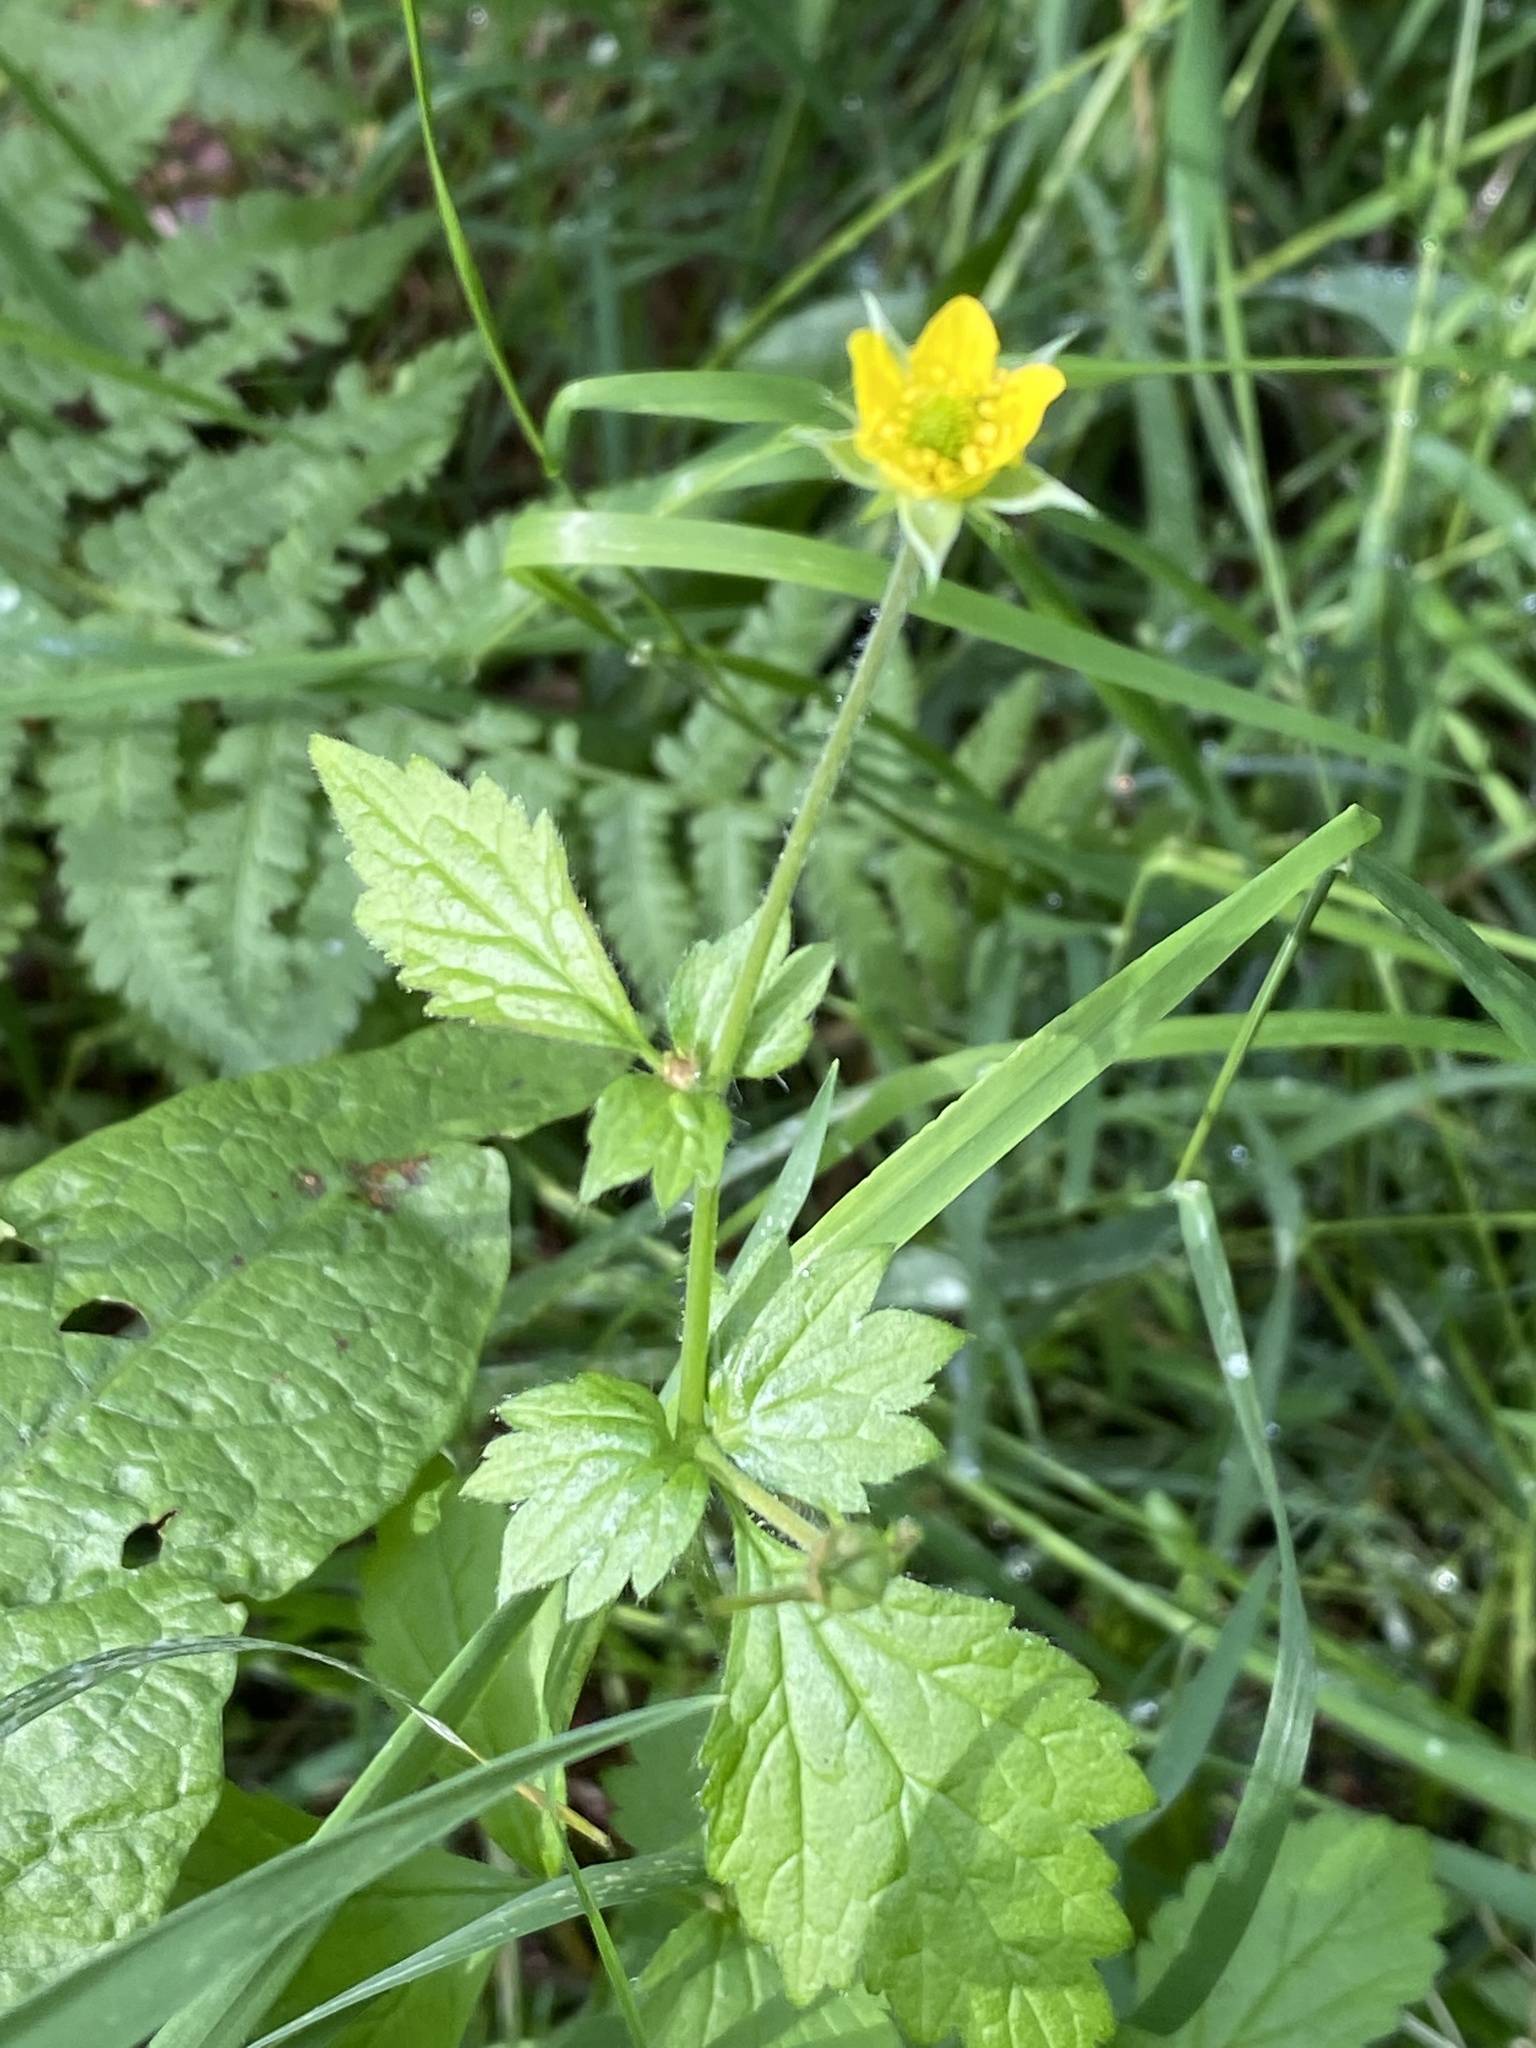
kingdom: Plantae
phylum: Tracheophyta
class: Magnoliopsida
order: Rosales
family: Rosaceae
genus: Geum
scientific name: Geum urbanum
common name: Wood avens
